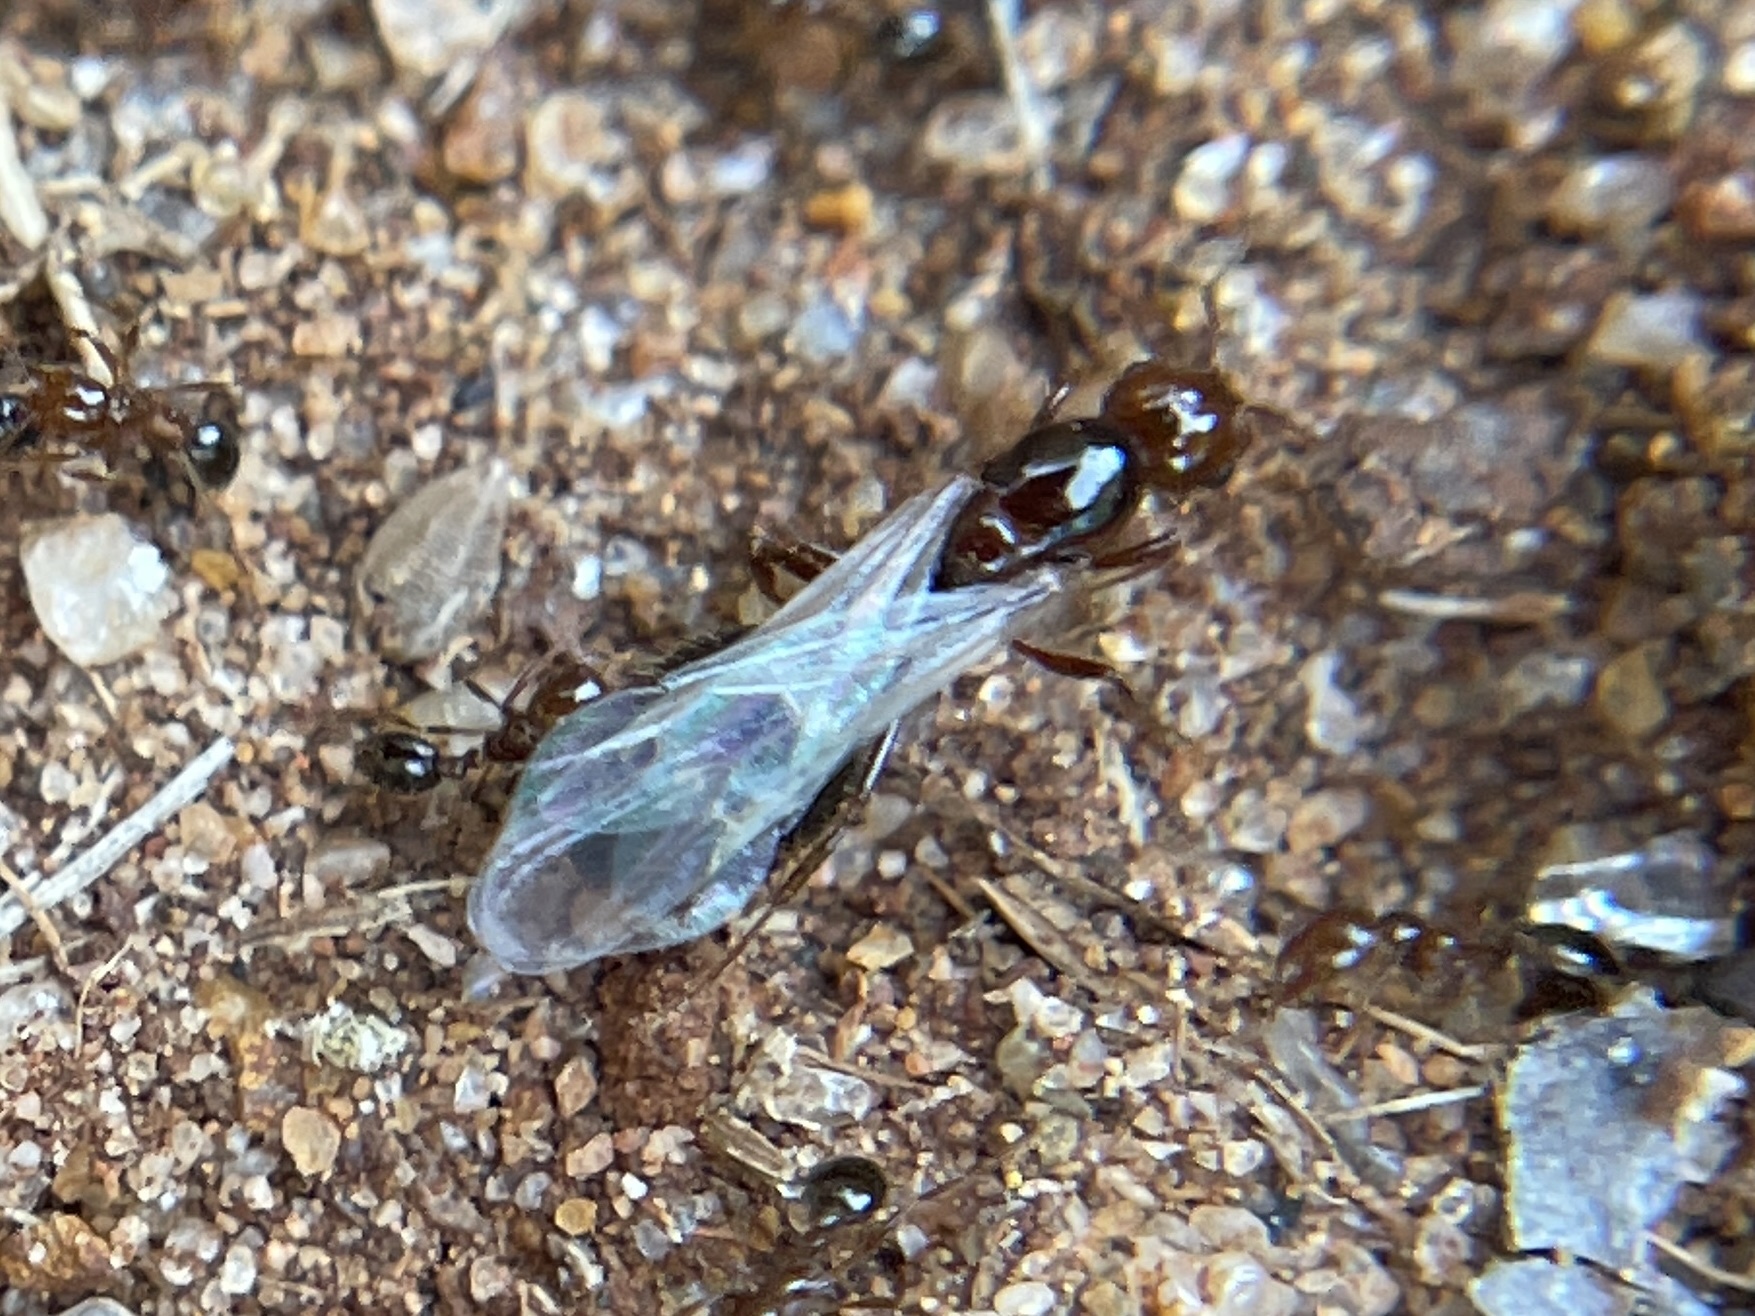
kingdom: Animalia
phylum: Arthropoda
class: Insecta
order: Hymenoptera
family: Formicidae
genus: Solenopsis
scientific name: Solenopsis invicta
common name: Red imported fire ant
